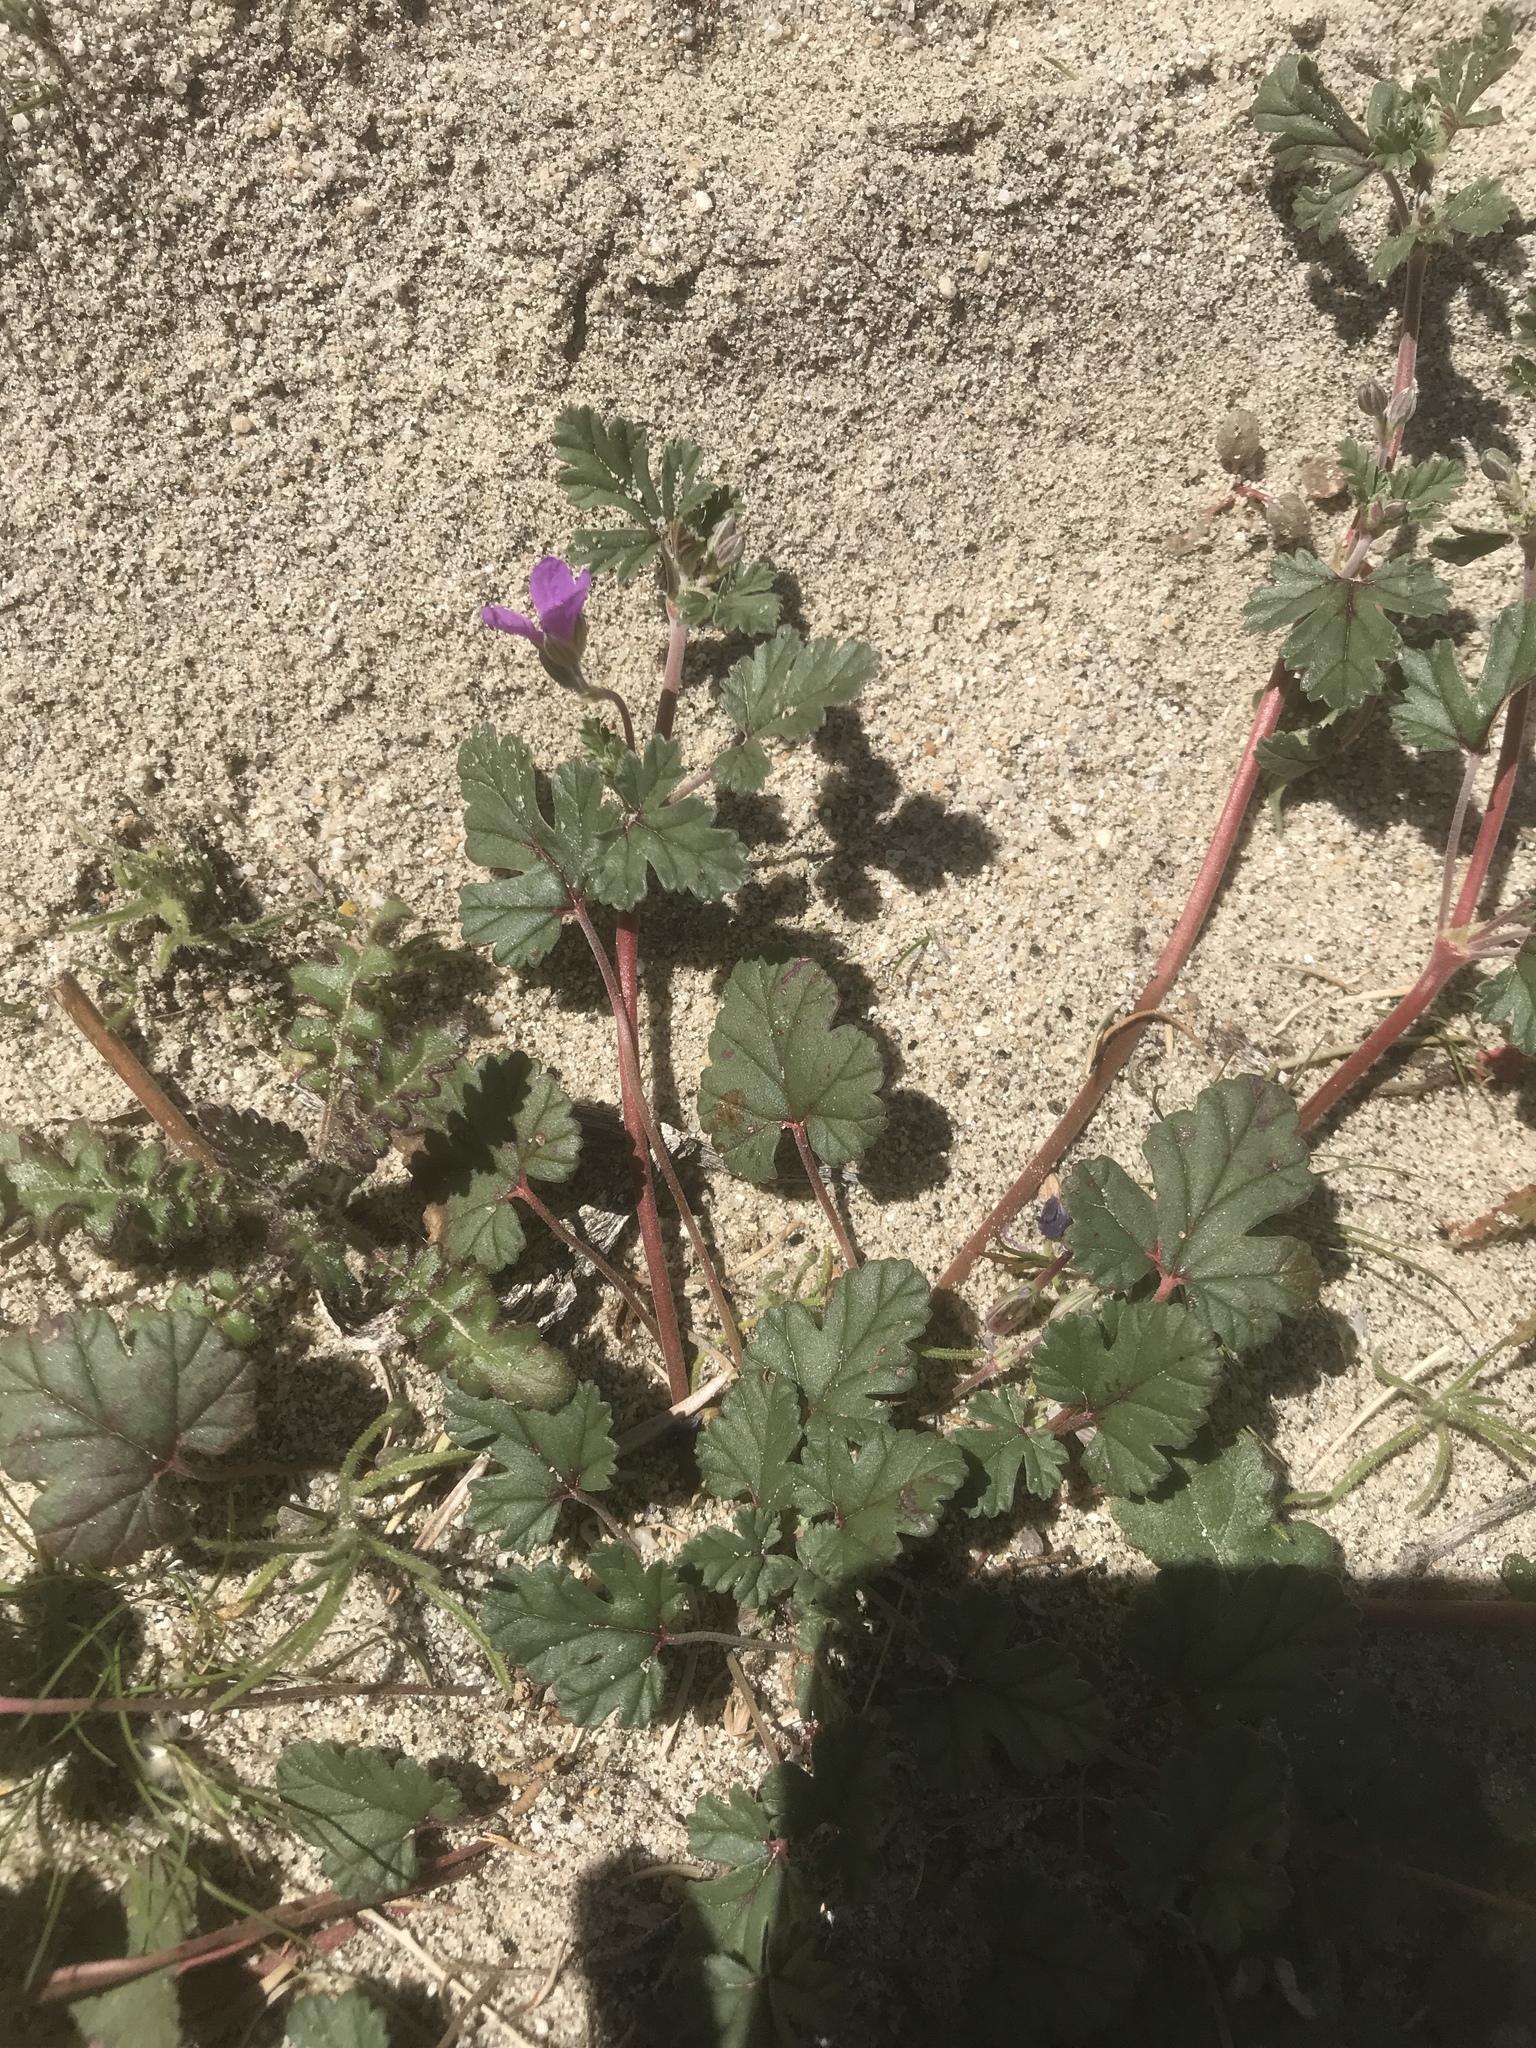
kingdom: Plantae
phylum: Tracheophyta
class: Magnoliopsida
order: Geraniales
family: Geraniaceae
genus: Erodium
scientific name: Erodium texanum
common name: Texas stork's-bill
